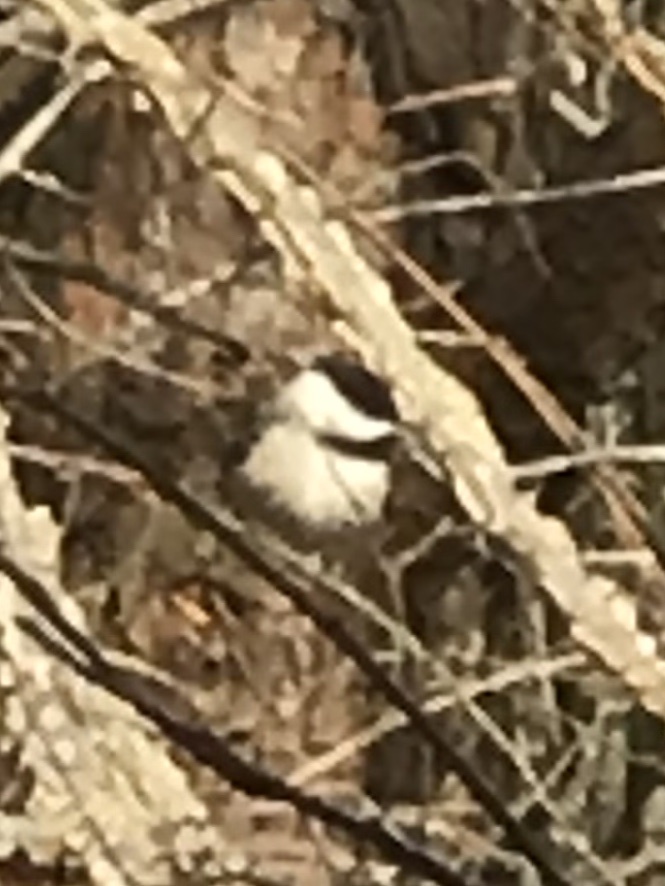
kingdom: Animalia
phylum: Chordata
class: Aves
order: Passeriformes
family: Paridae
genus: Poecile
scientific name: Poecile carolinensis
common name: Carolina chickadee
